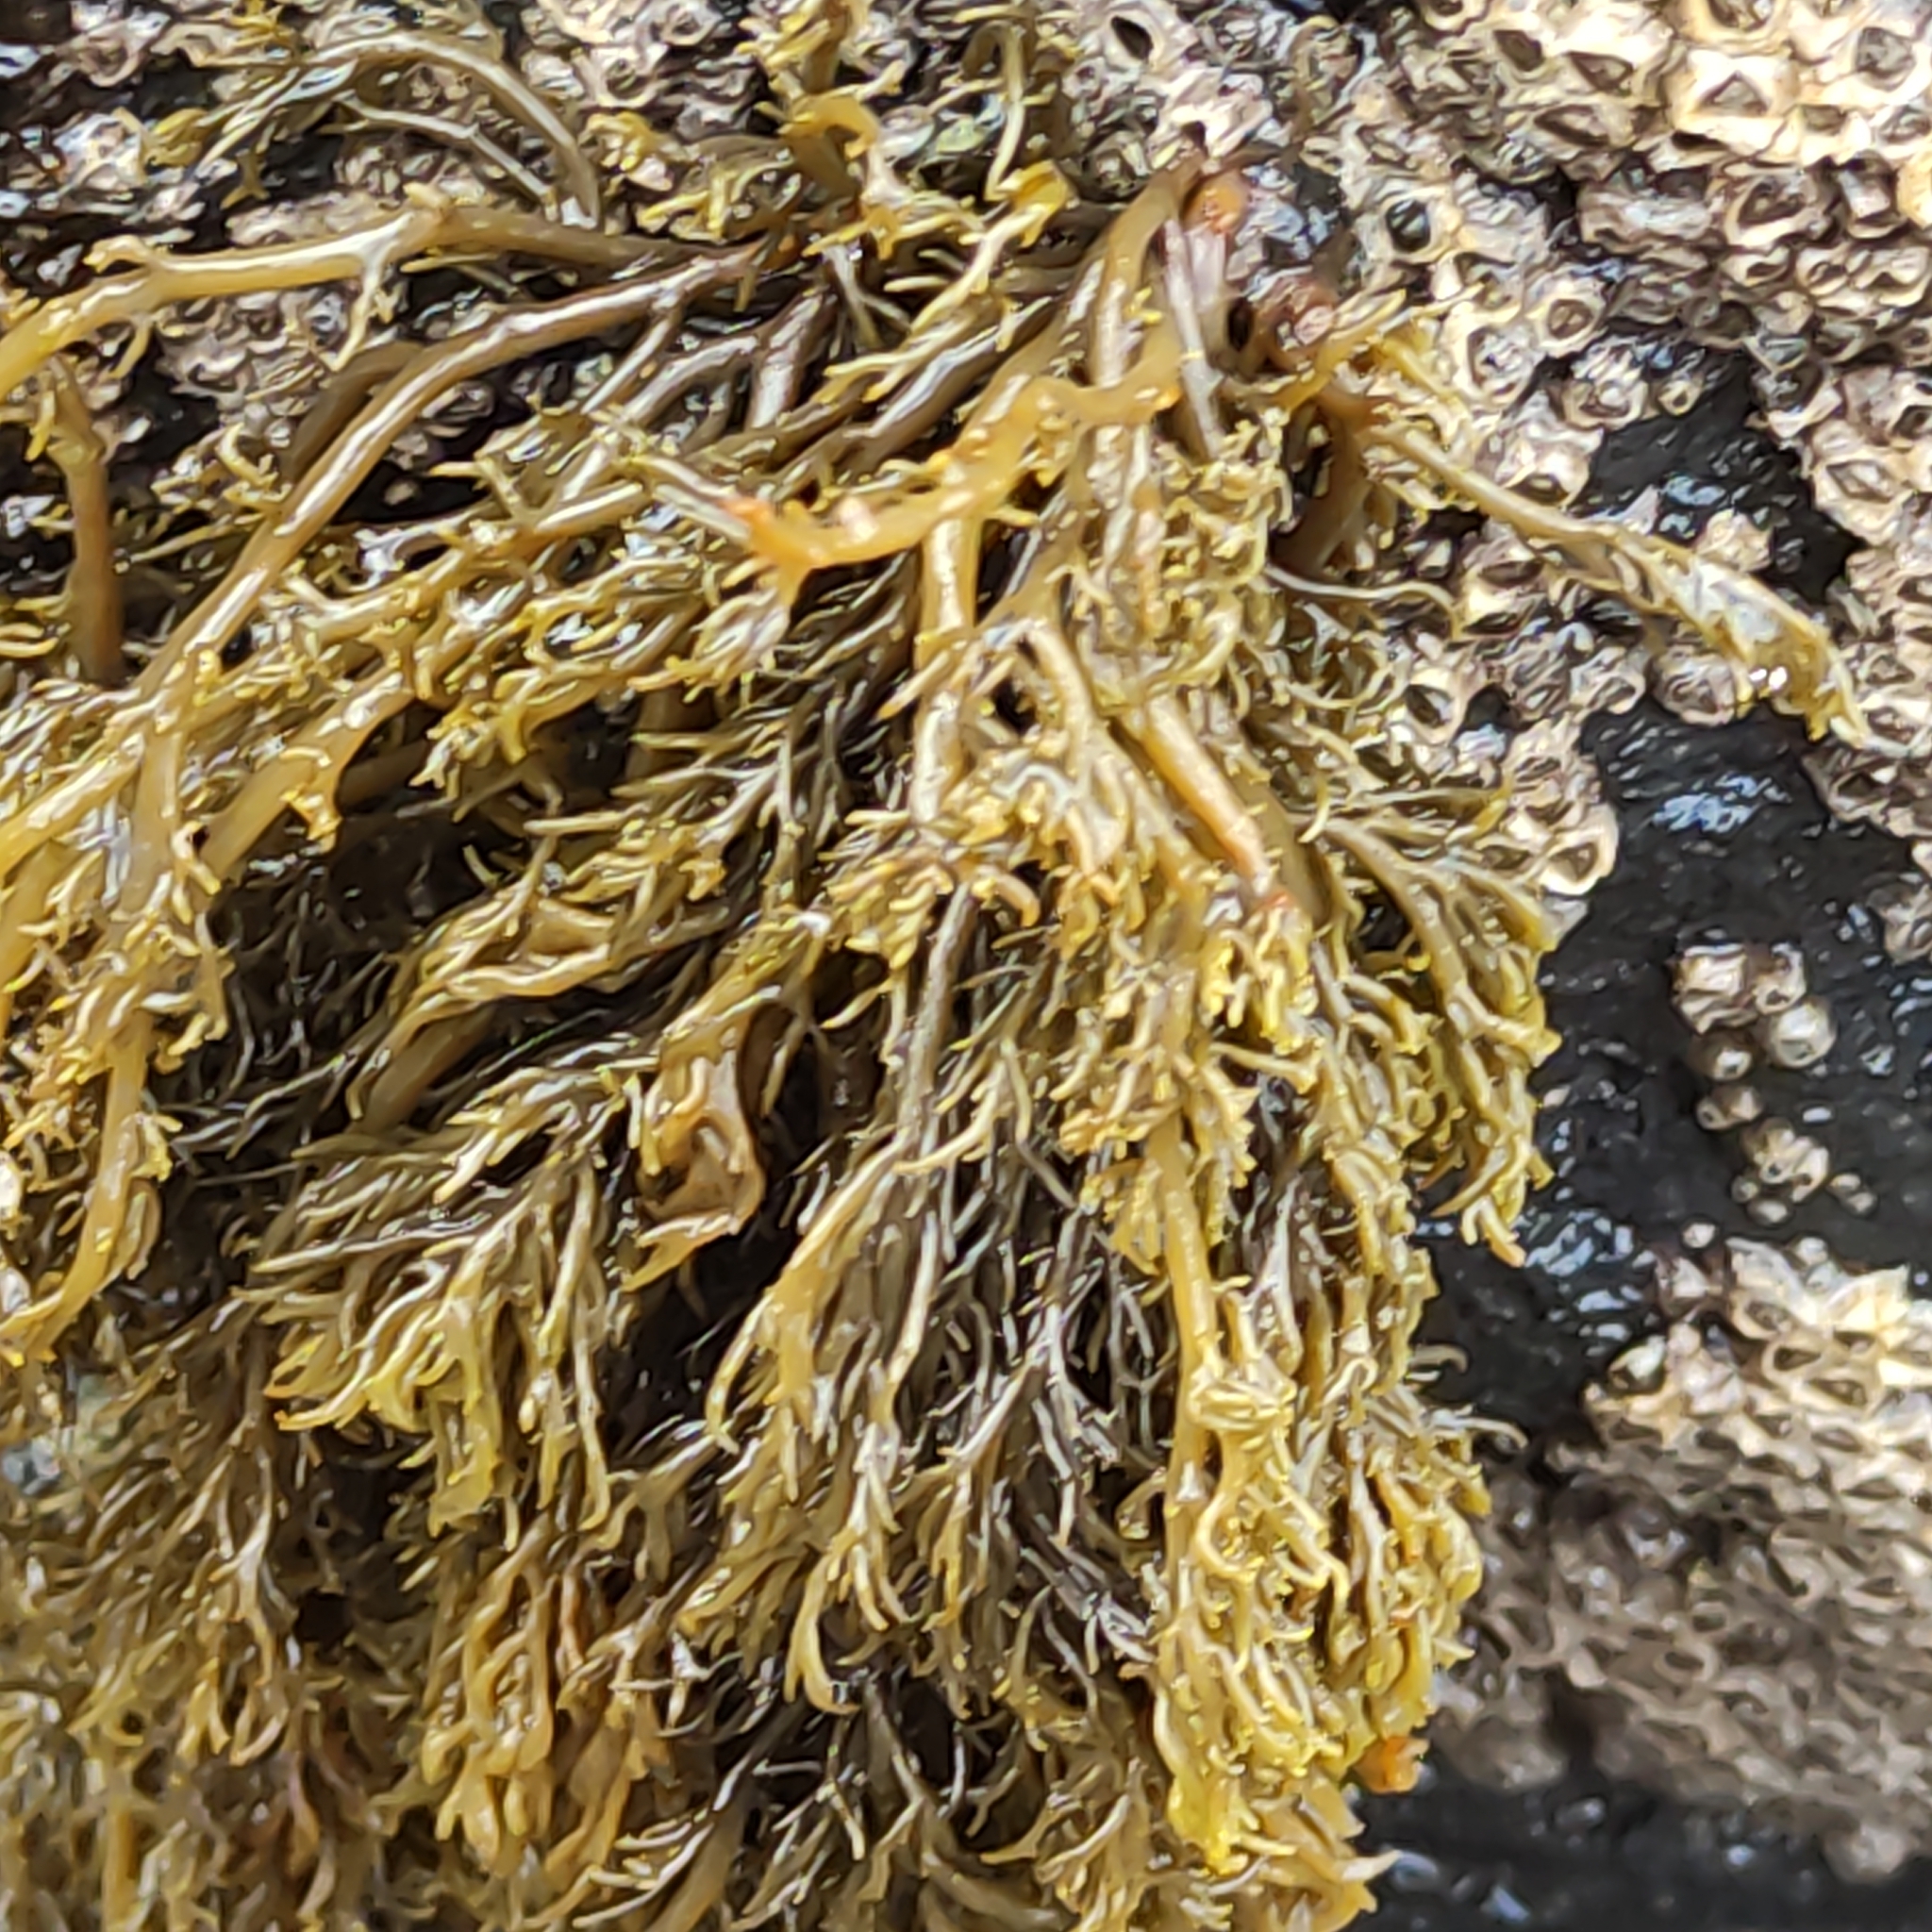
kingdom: Chromista
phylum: Ochrophyta
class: Phaeophyceae
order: Scytothamnales
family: Scytothamnaceae
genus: Scytothamnus
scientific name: Scytothamnus australis
